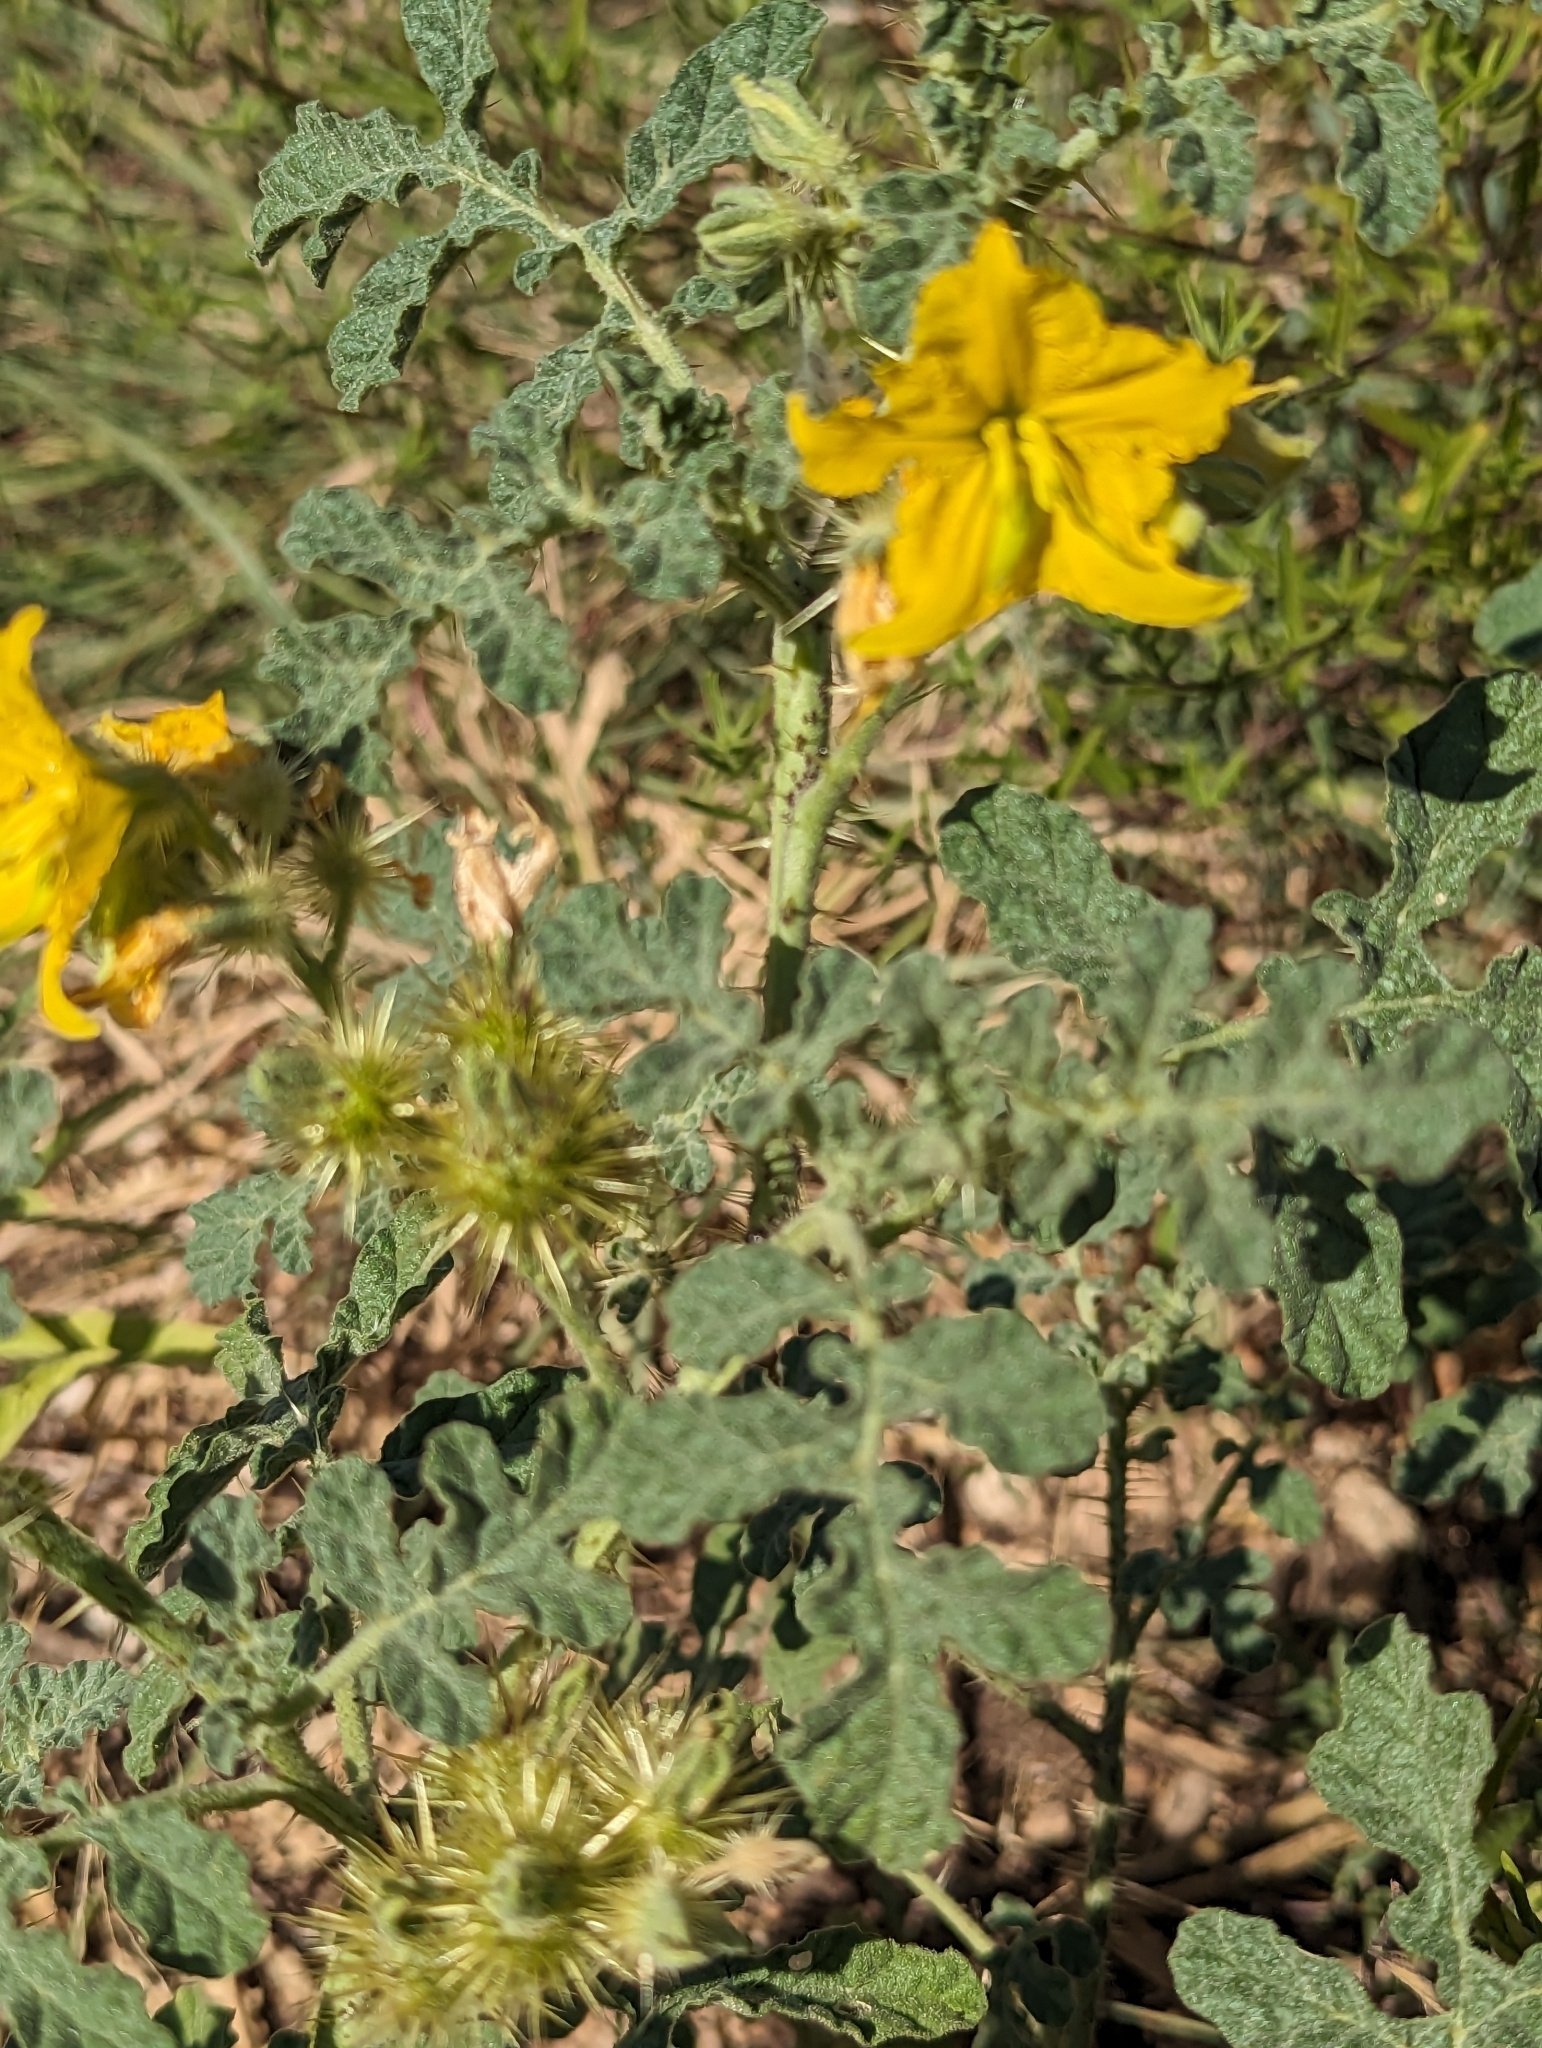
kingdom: Plantae
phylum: Tracheophyta
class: Magnoliopsida
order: Solanales
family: Solanaceae
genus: Solanum
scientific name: Solanum angustifolium
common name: Buffalobur nightshade
